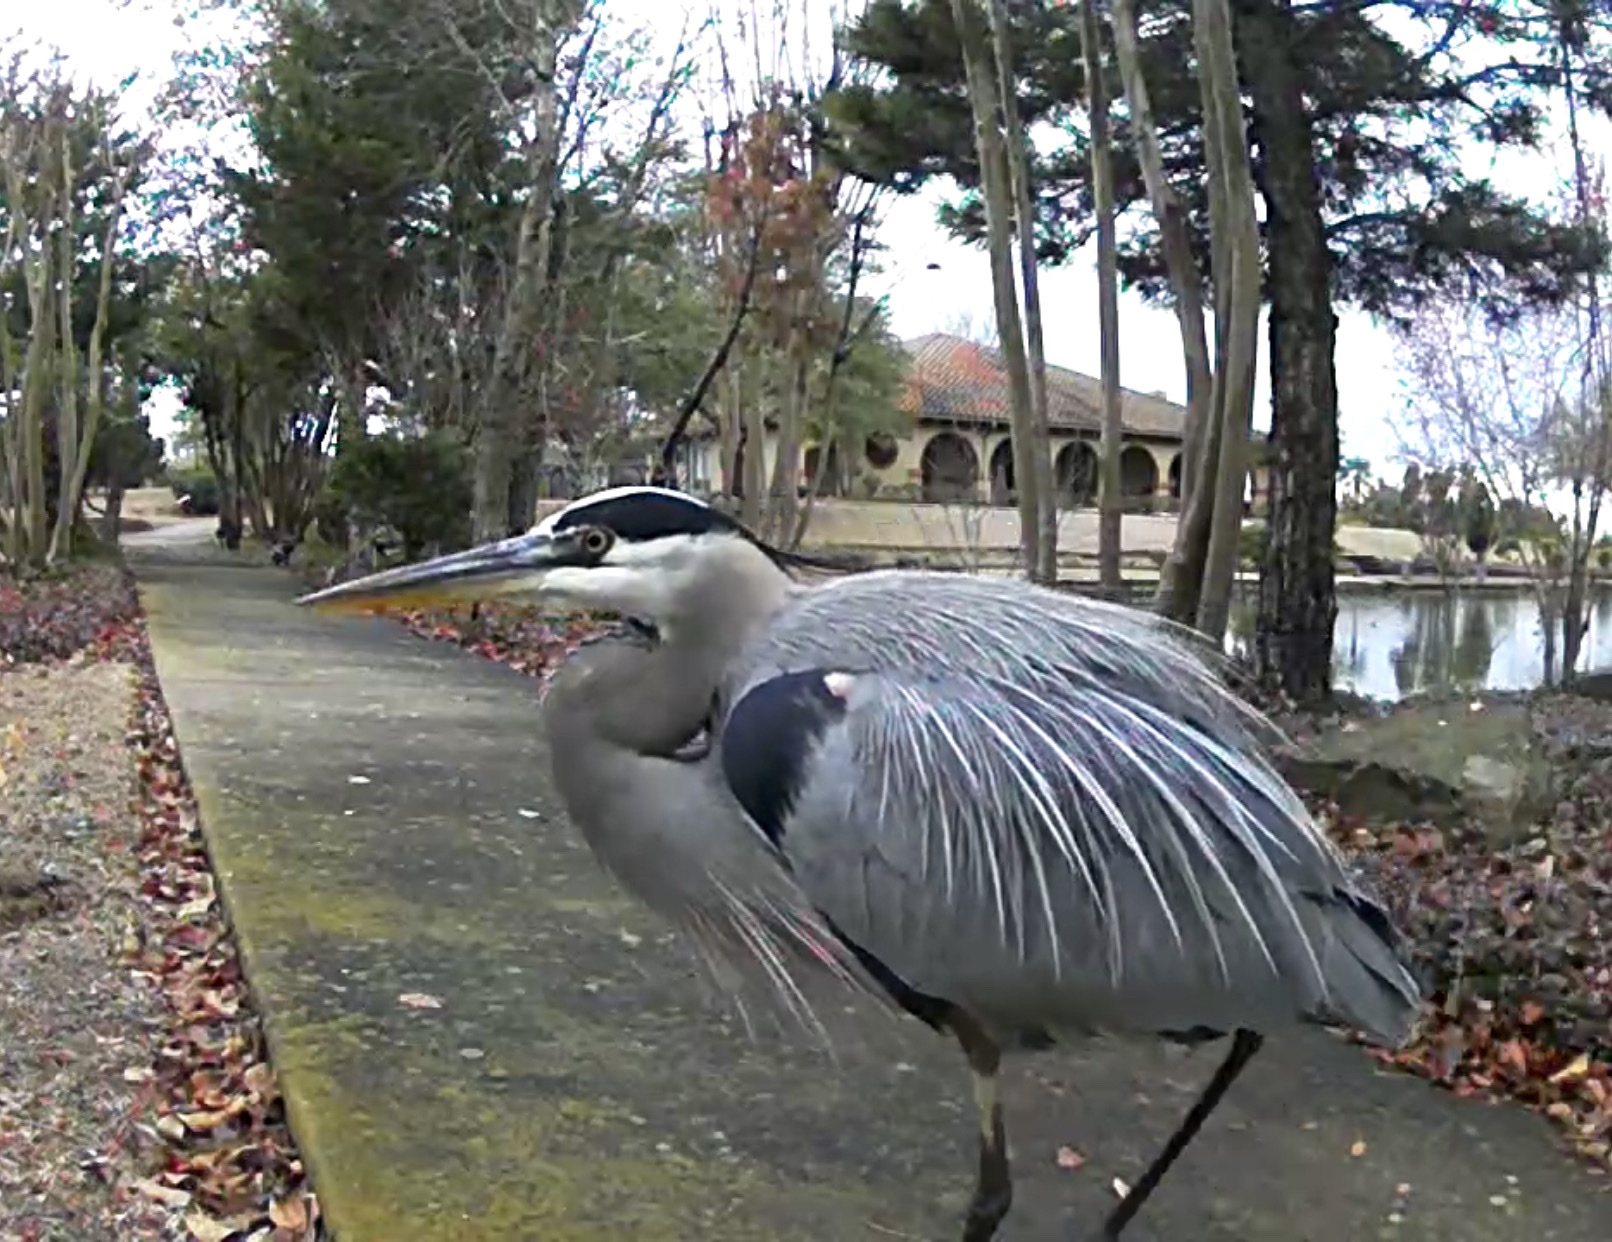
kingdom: Animalia
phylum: Chordata
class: Aves
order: Pelecaniformes
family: Ardeidae
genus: Ardea
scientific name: Ardea herodias
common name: Great blue heron
